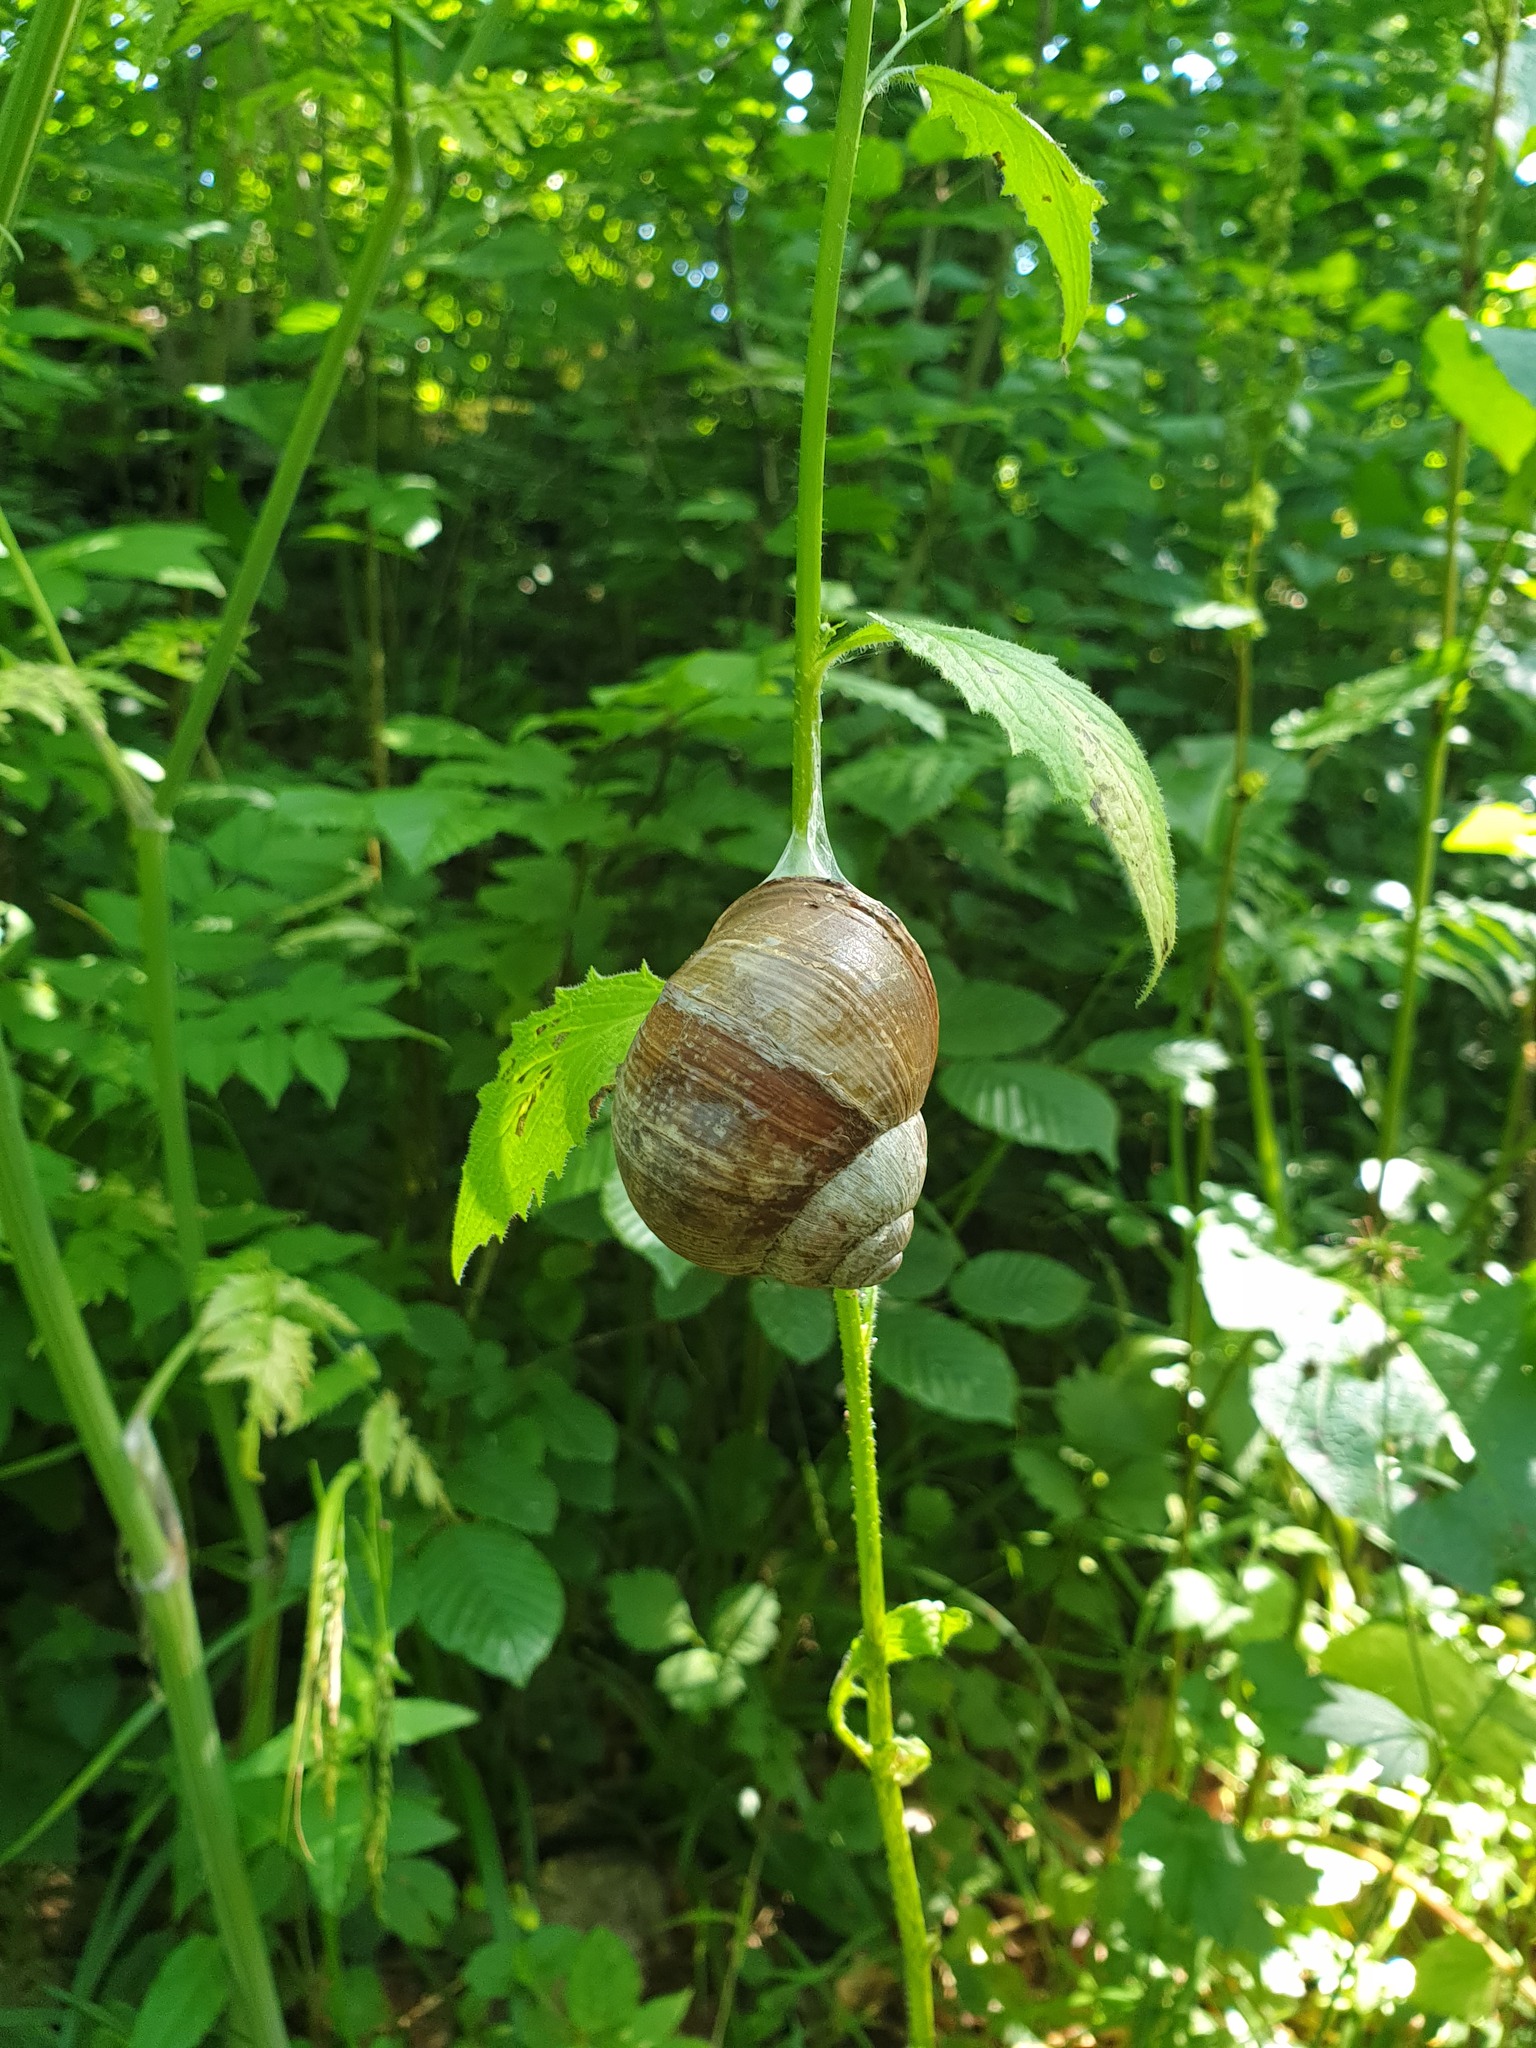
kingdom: Animalia
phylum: Mollusca
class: Gastropoda
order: Stylommatophora
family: Helicidae
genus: Helix
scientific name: Helix pomatia
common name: Roman snail
